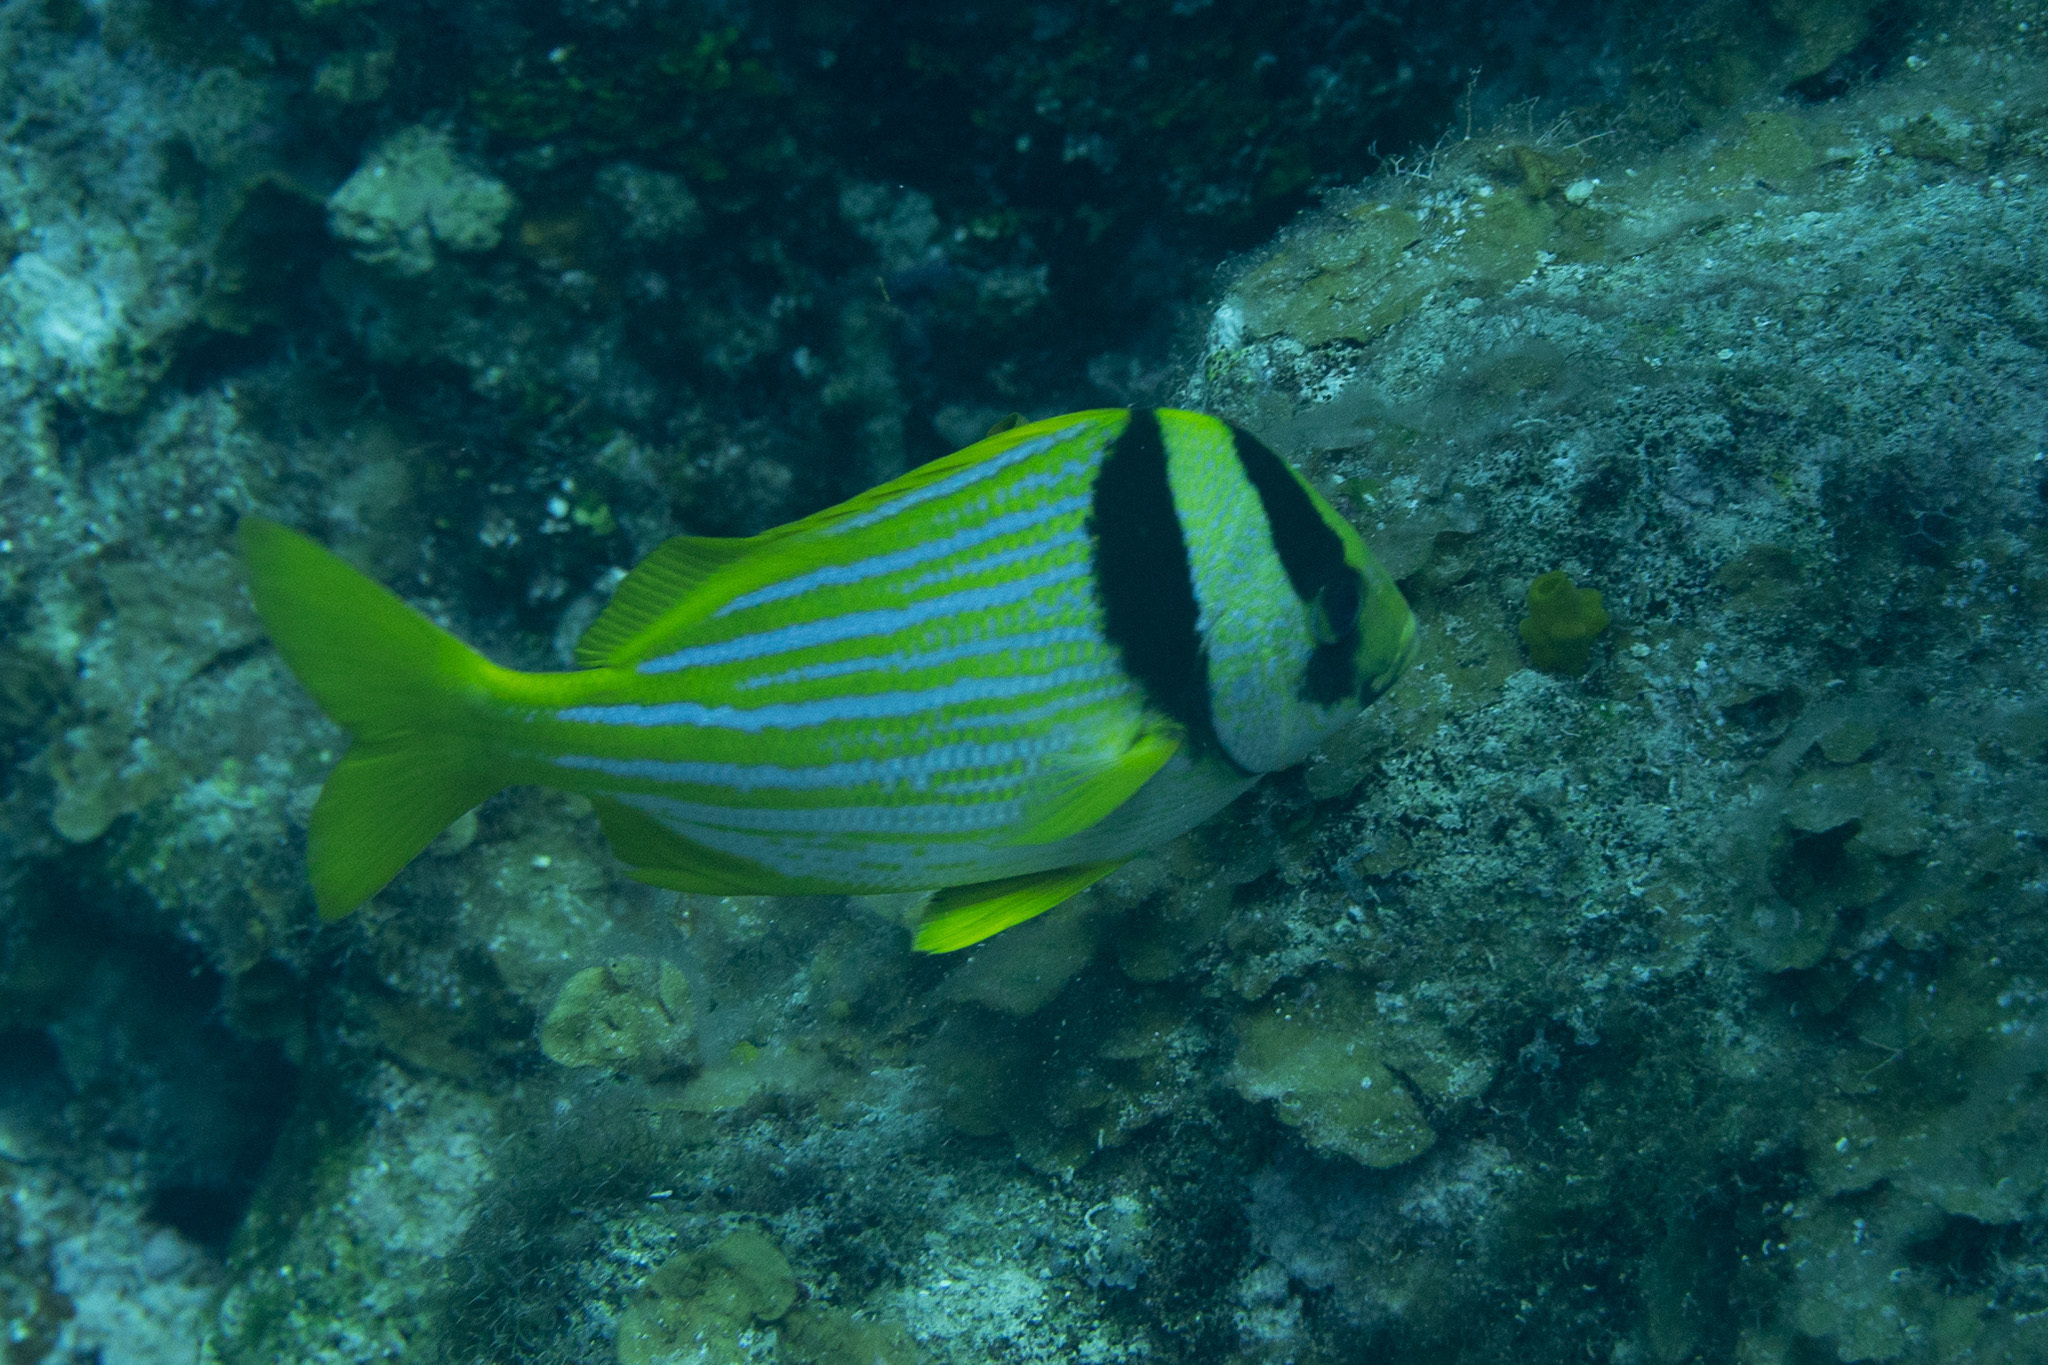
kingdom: Animalia
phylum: Chordata
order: Perciformes
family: Haemulidae
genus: Anisotremus
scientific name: Anisotremus virginicus
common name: Porkfish
